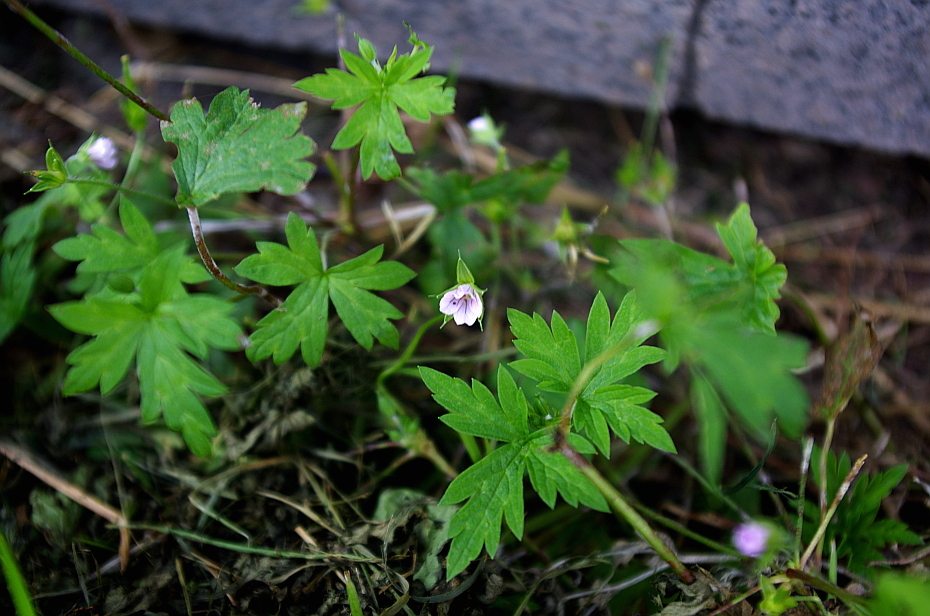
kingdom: Plantae
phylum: Tracheophyta
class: Magnoliopsida
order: Geraniales
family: Geraniaceae
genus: Geranium
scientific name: Geranium sibiricum
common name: Siberian crane's-bill
